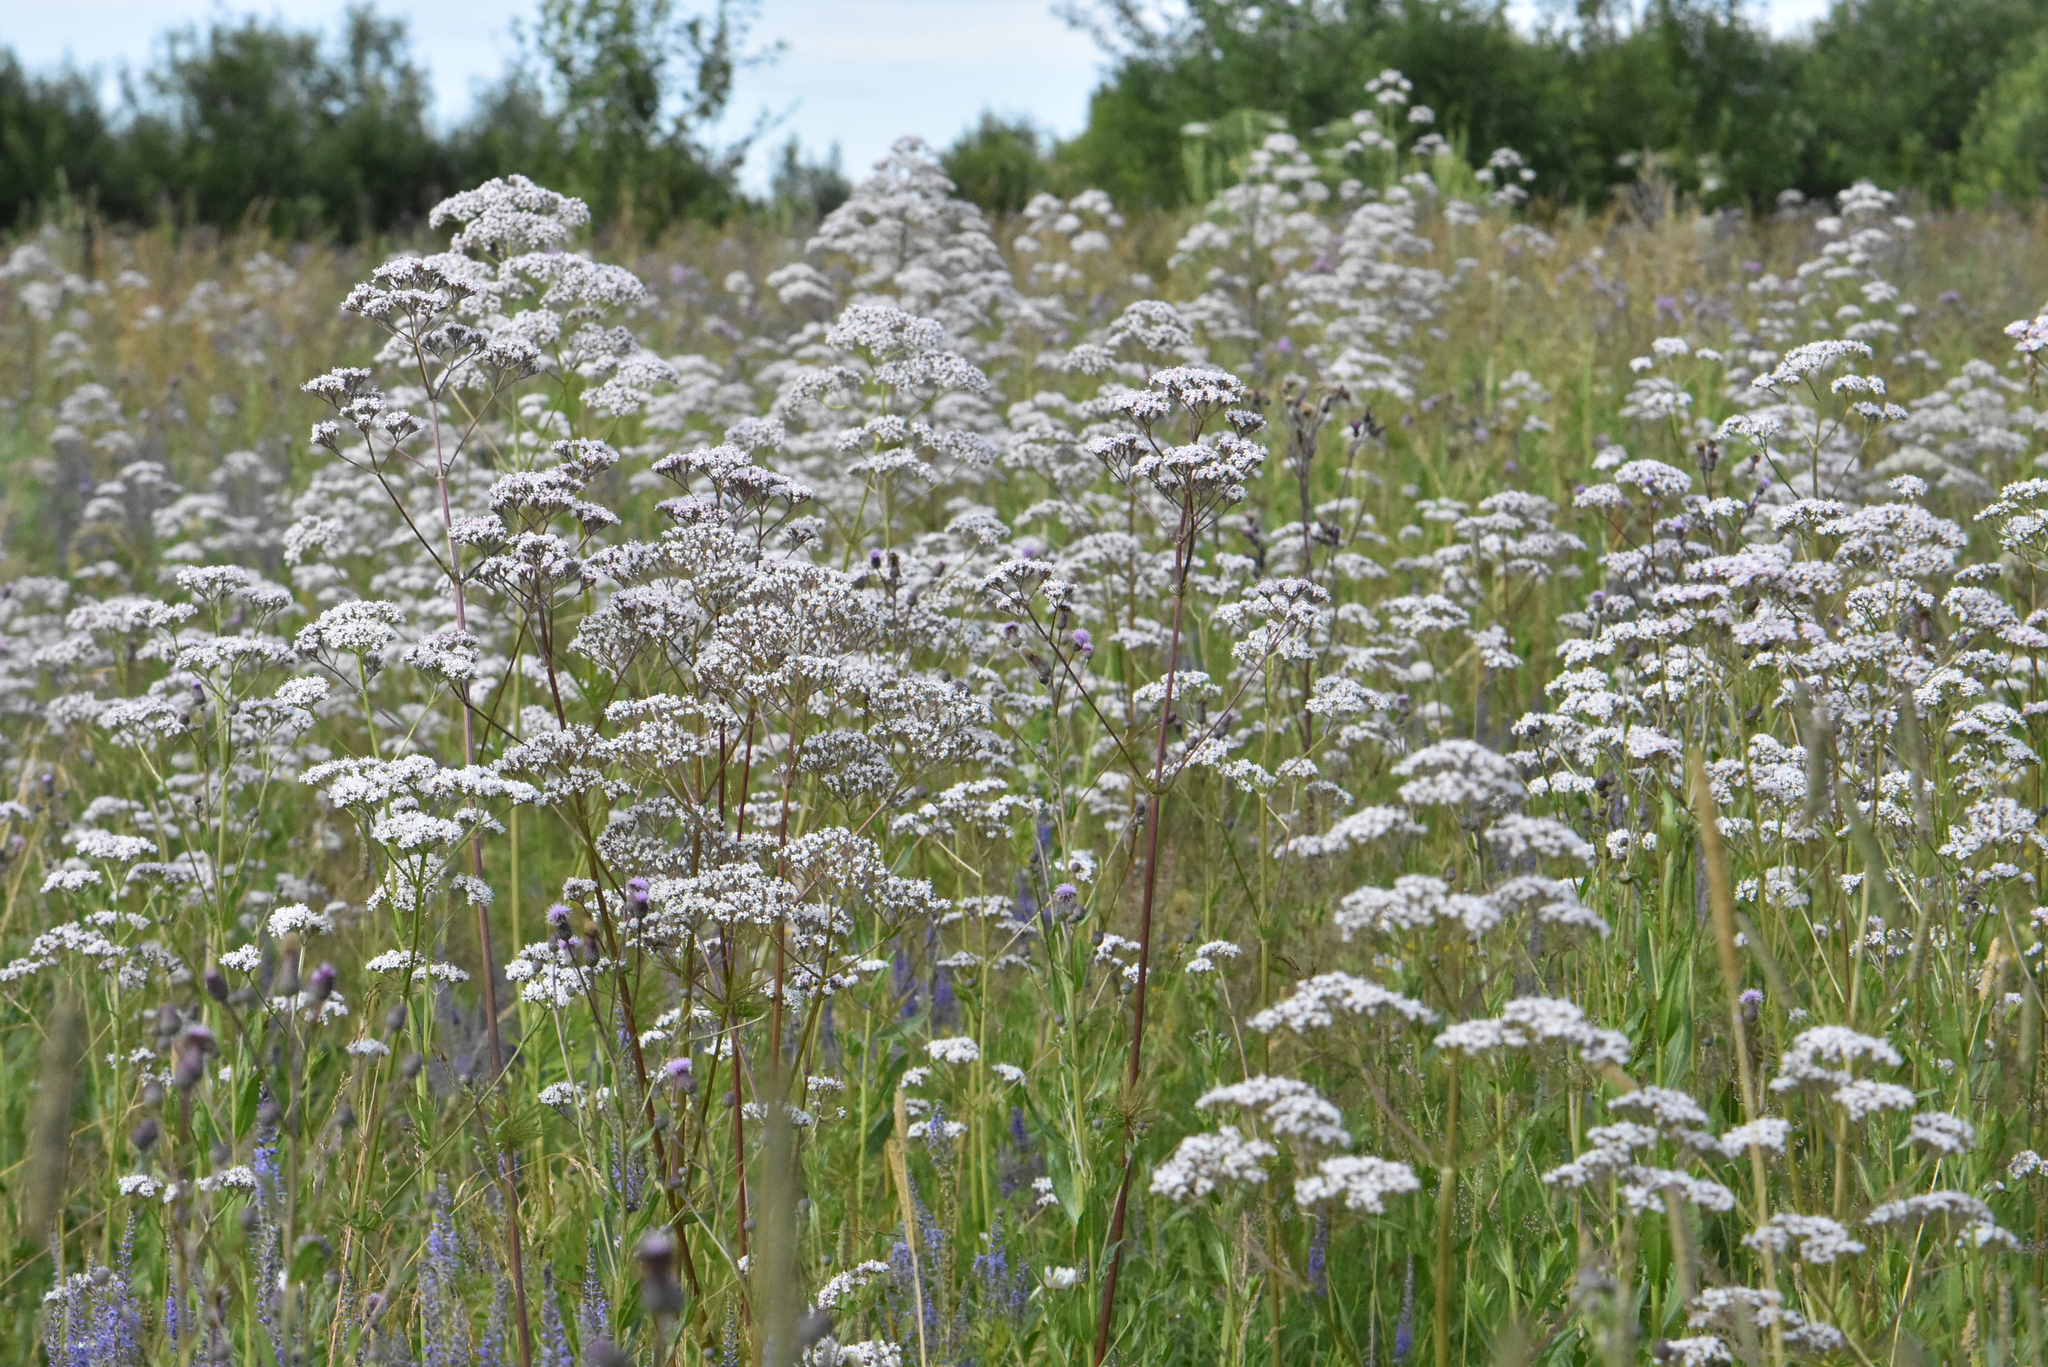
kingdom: Plantae
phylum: Tracheophyta
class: Magnoliopsida
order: Dipsacales
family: Caprifoliaceae
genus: Valeriana
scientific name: Valeriana officinalis
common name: Common valerian
